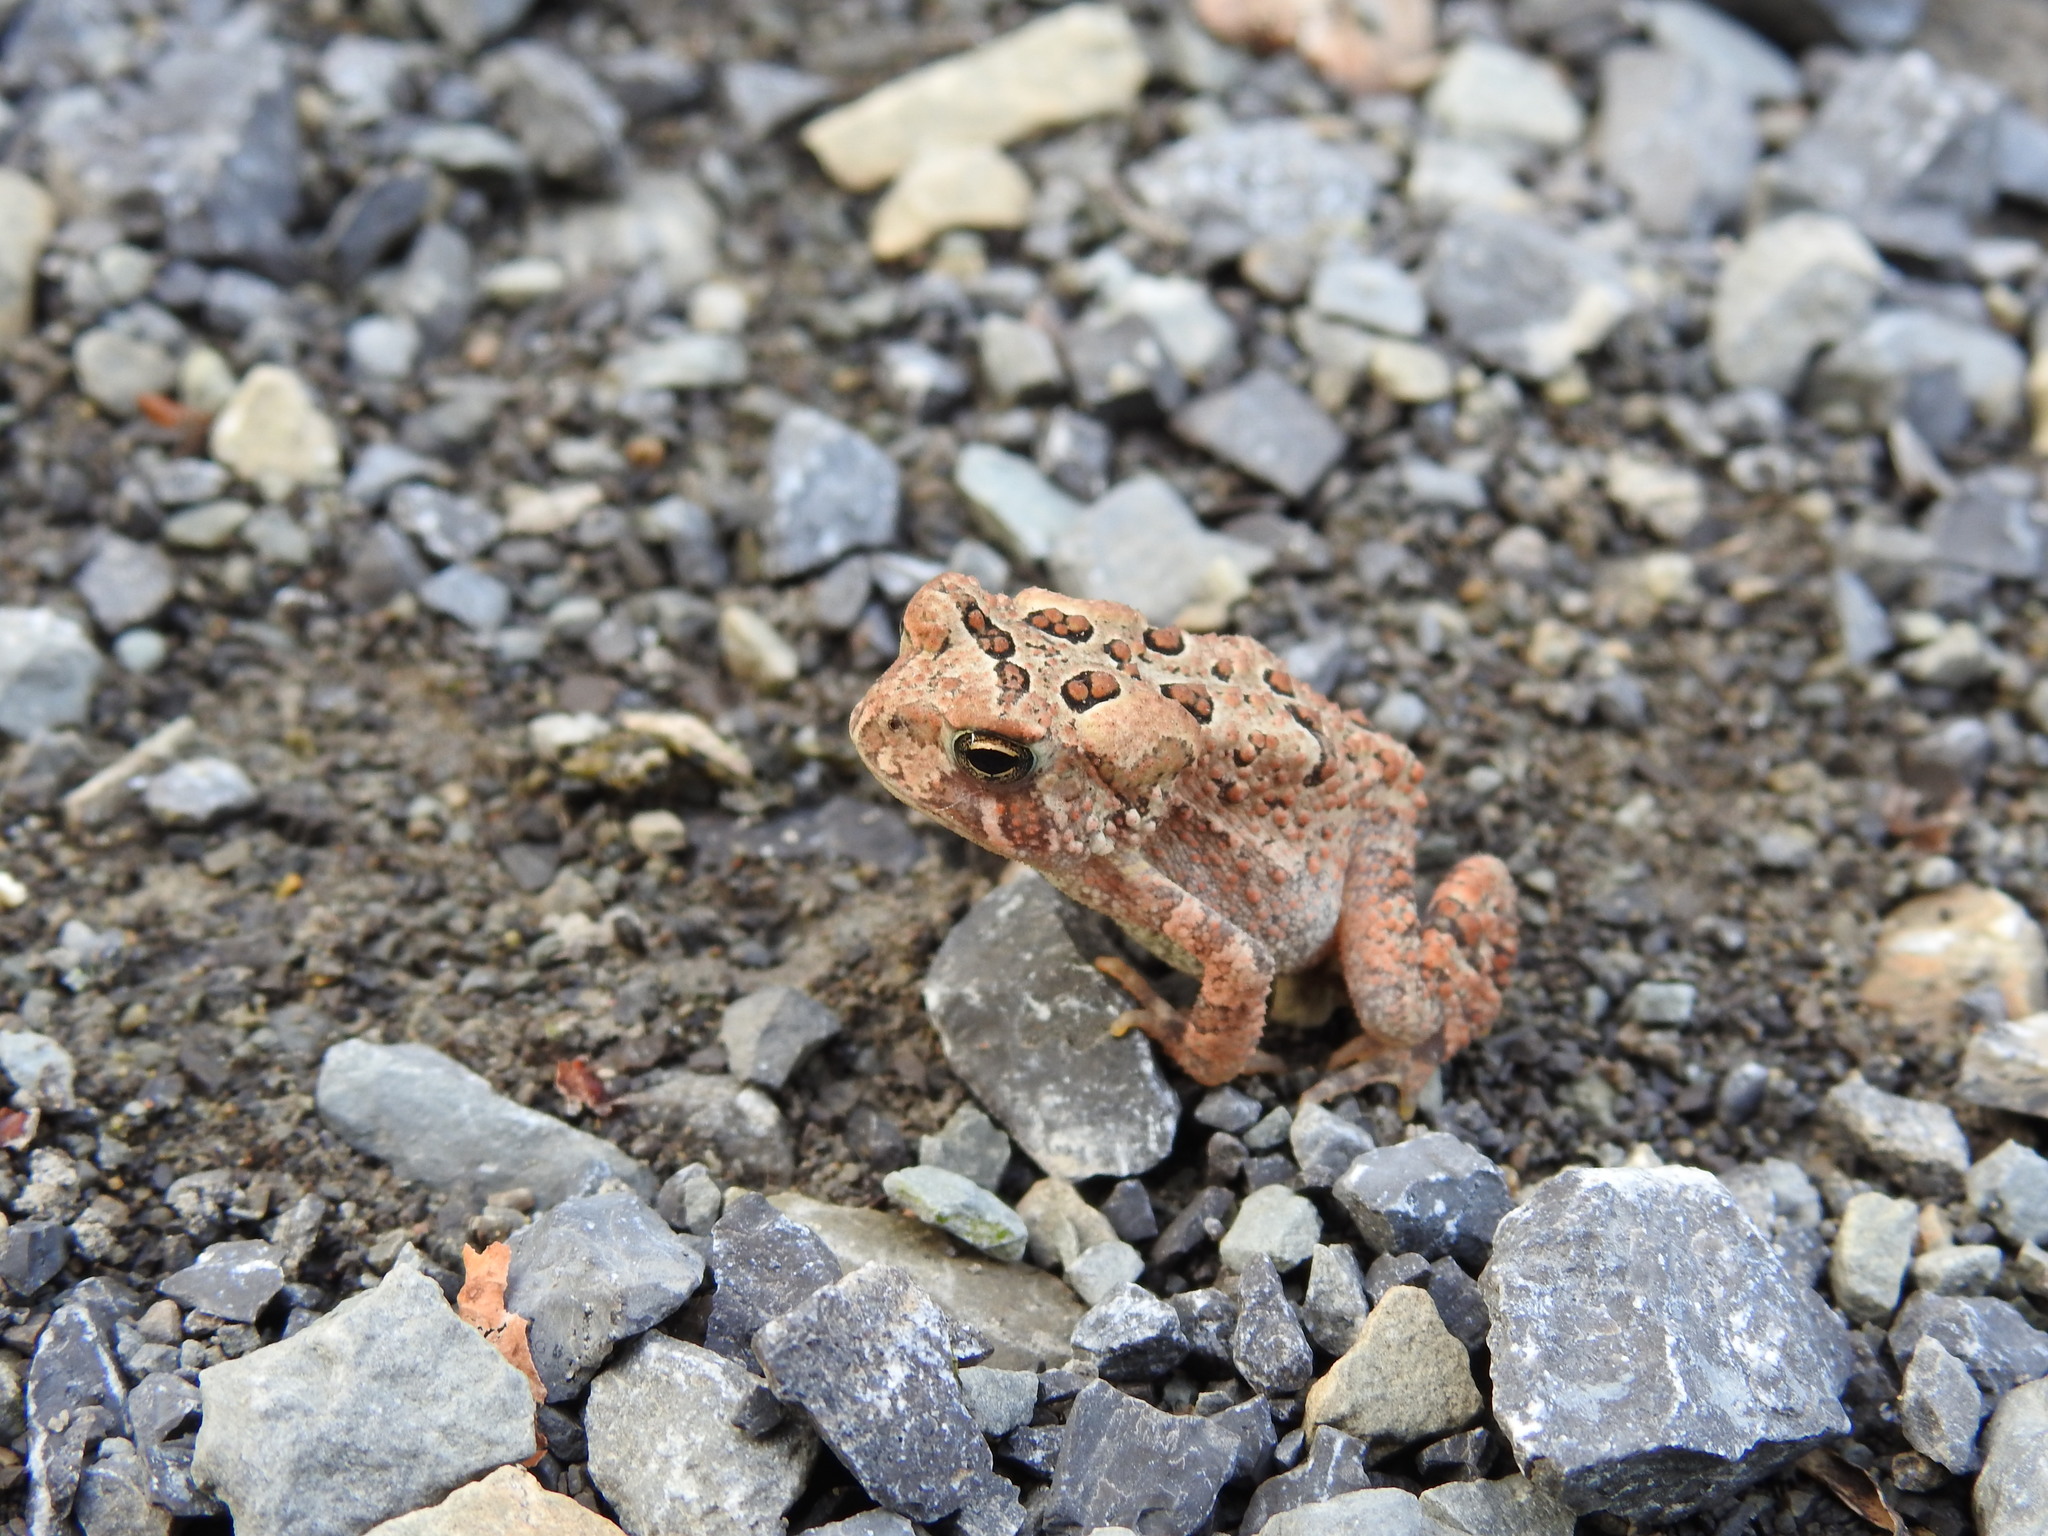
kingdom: Animalia
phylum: Chordata
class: Amphibia
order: Anura
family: Bufonidae
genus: Anaxyrus
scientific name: Anaxyrus americanus
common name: American toad
